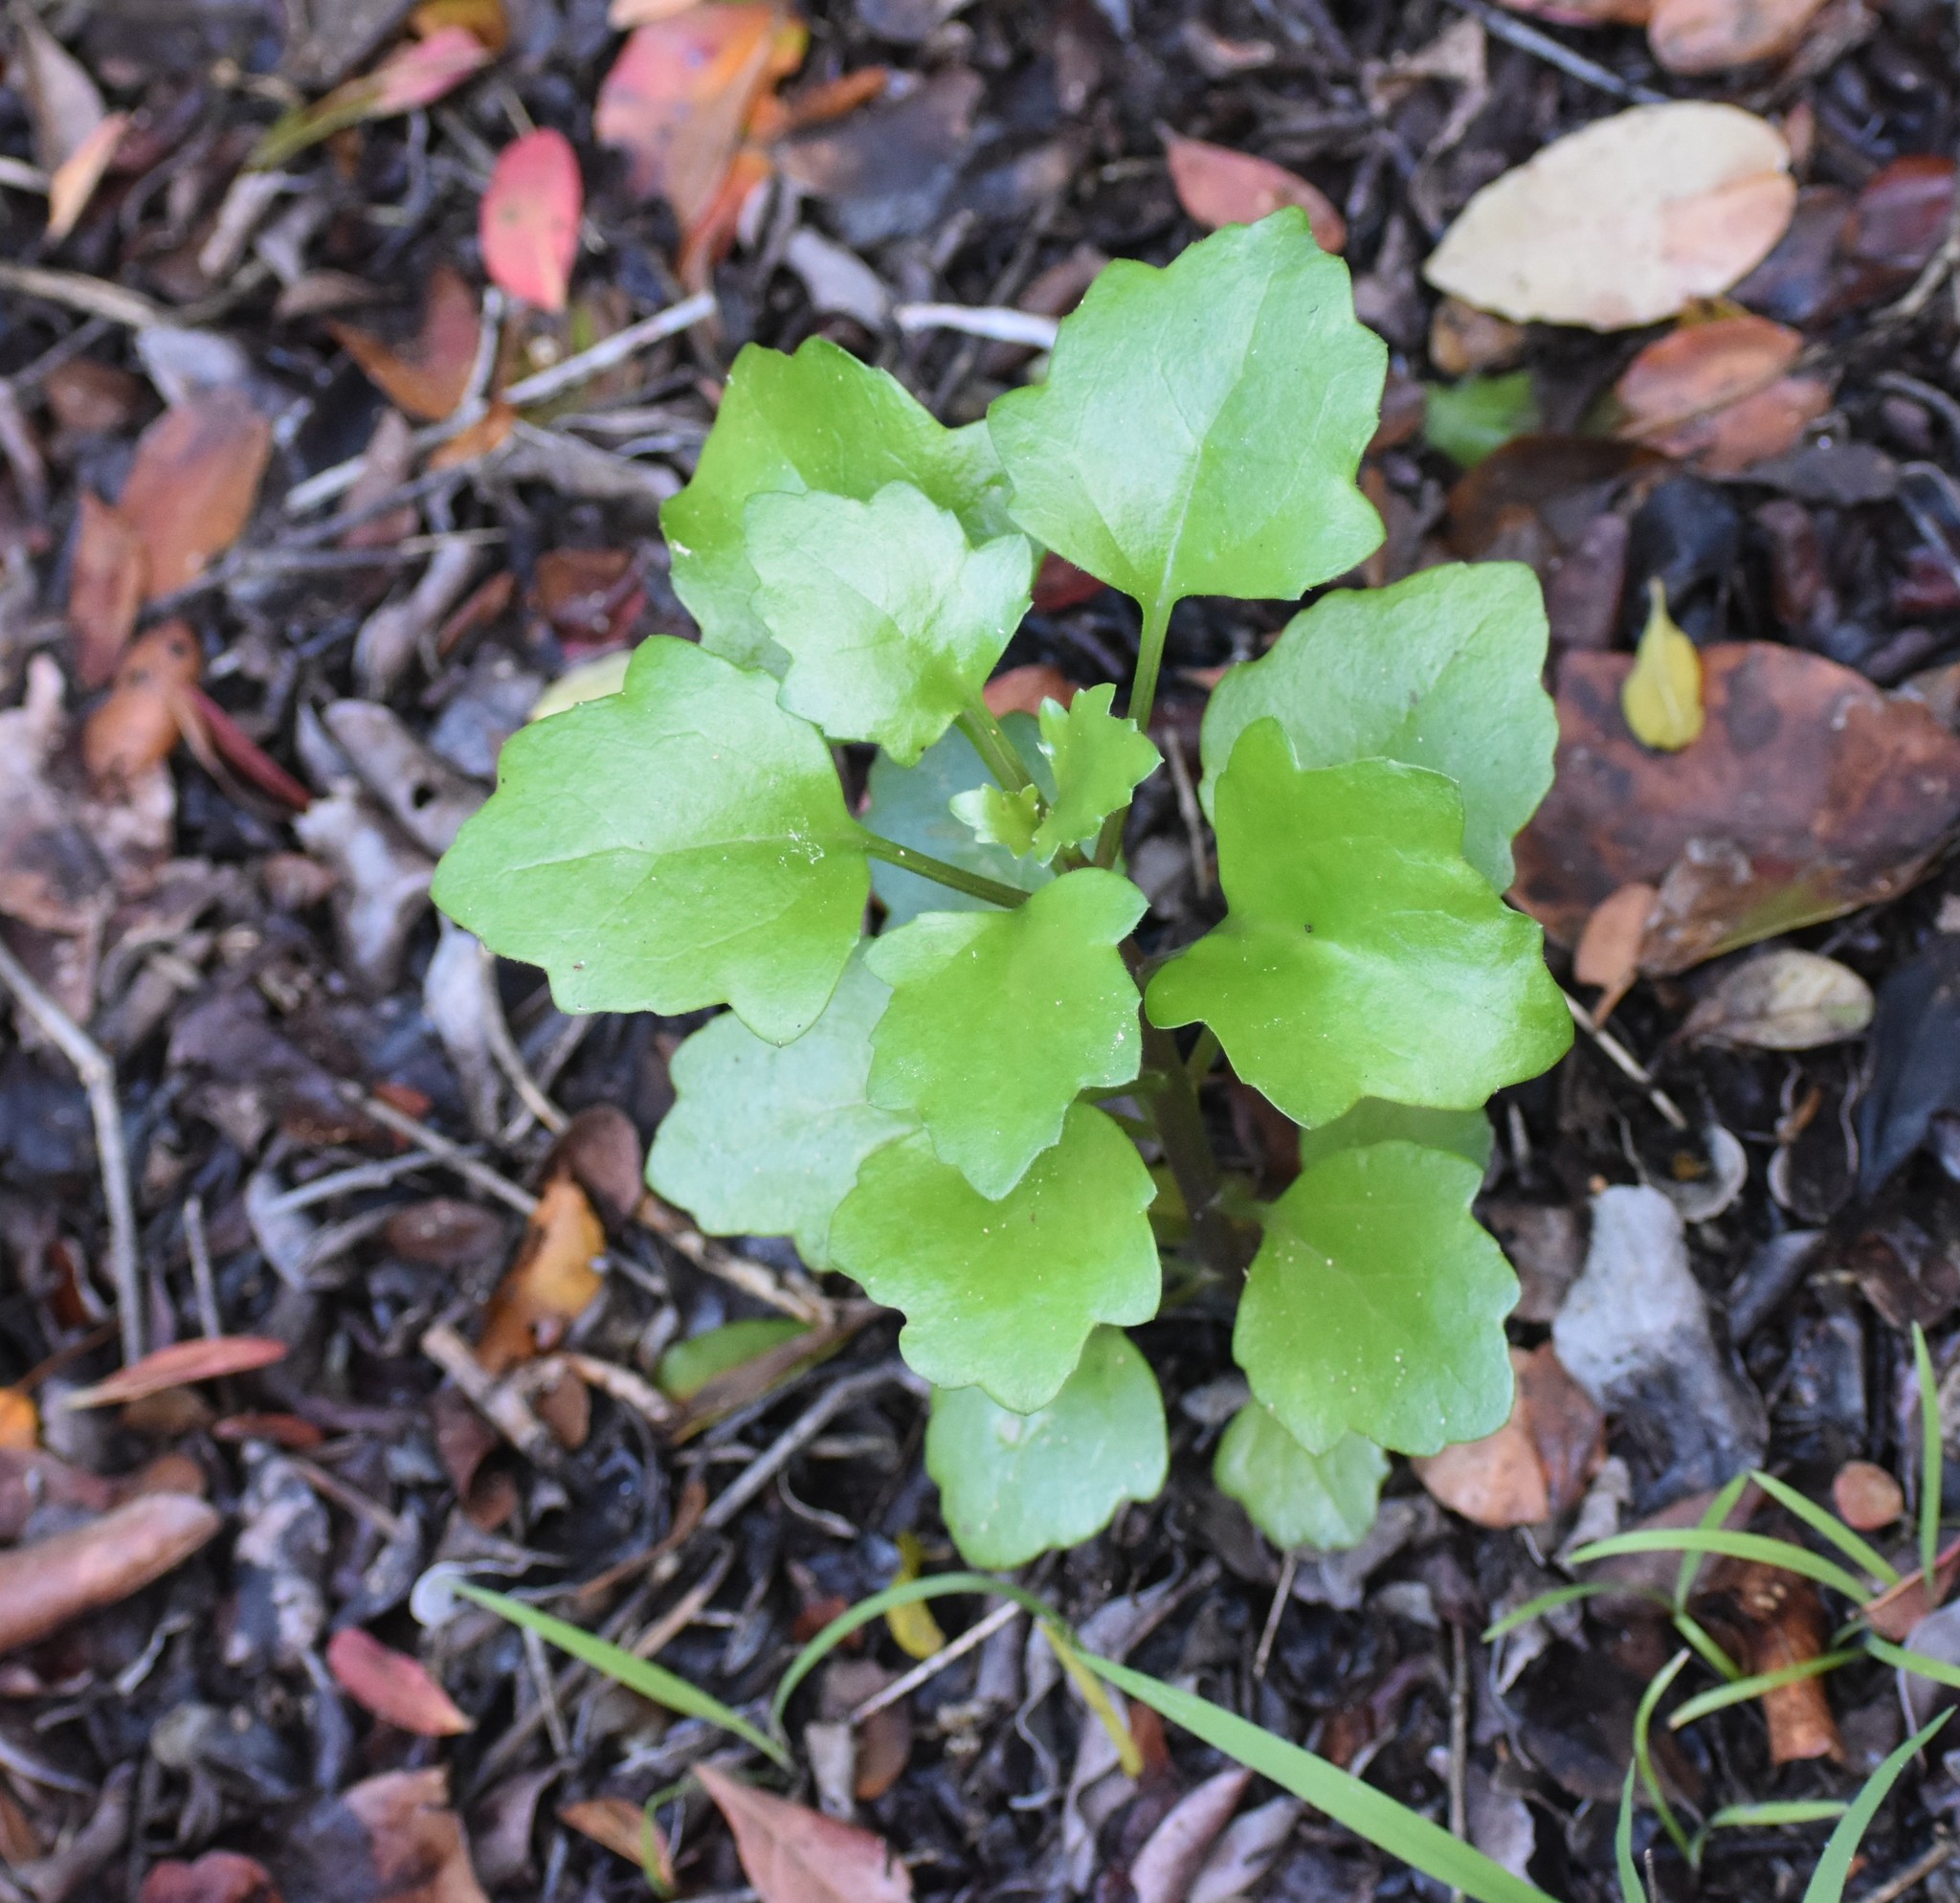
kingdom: Plantae
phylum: Tracheophyta
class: Magnoliopsida
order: Asterales
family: Asteraceae
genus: Senecio
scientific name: Senecio angulatus
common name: Climbing groundsel
